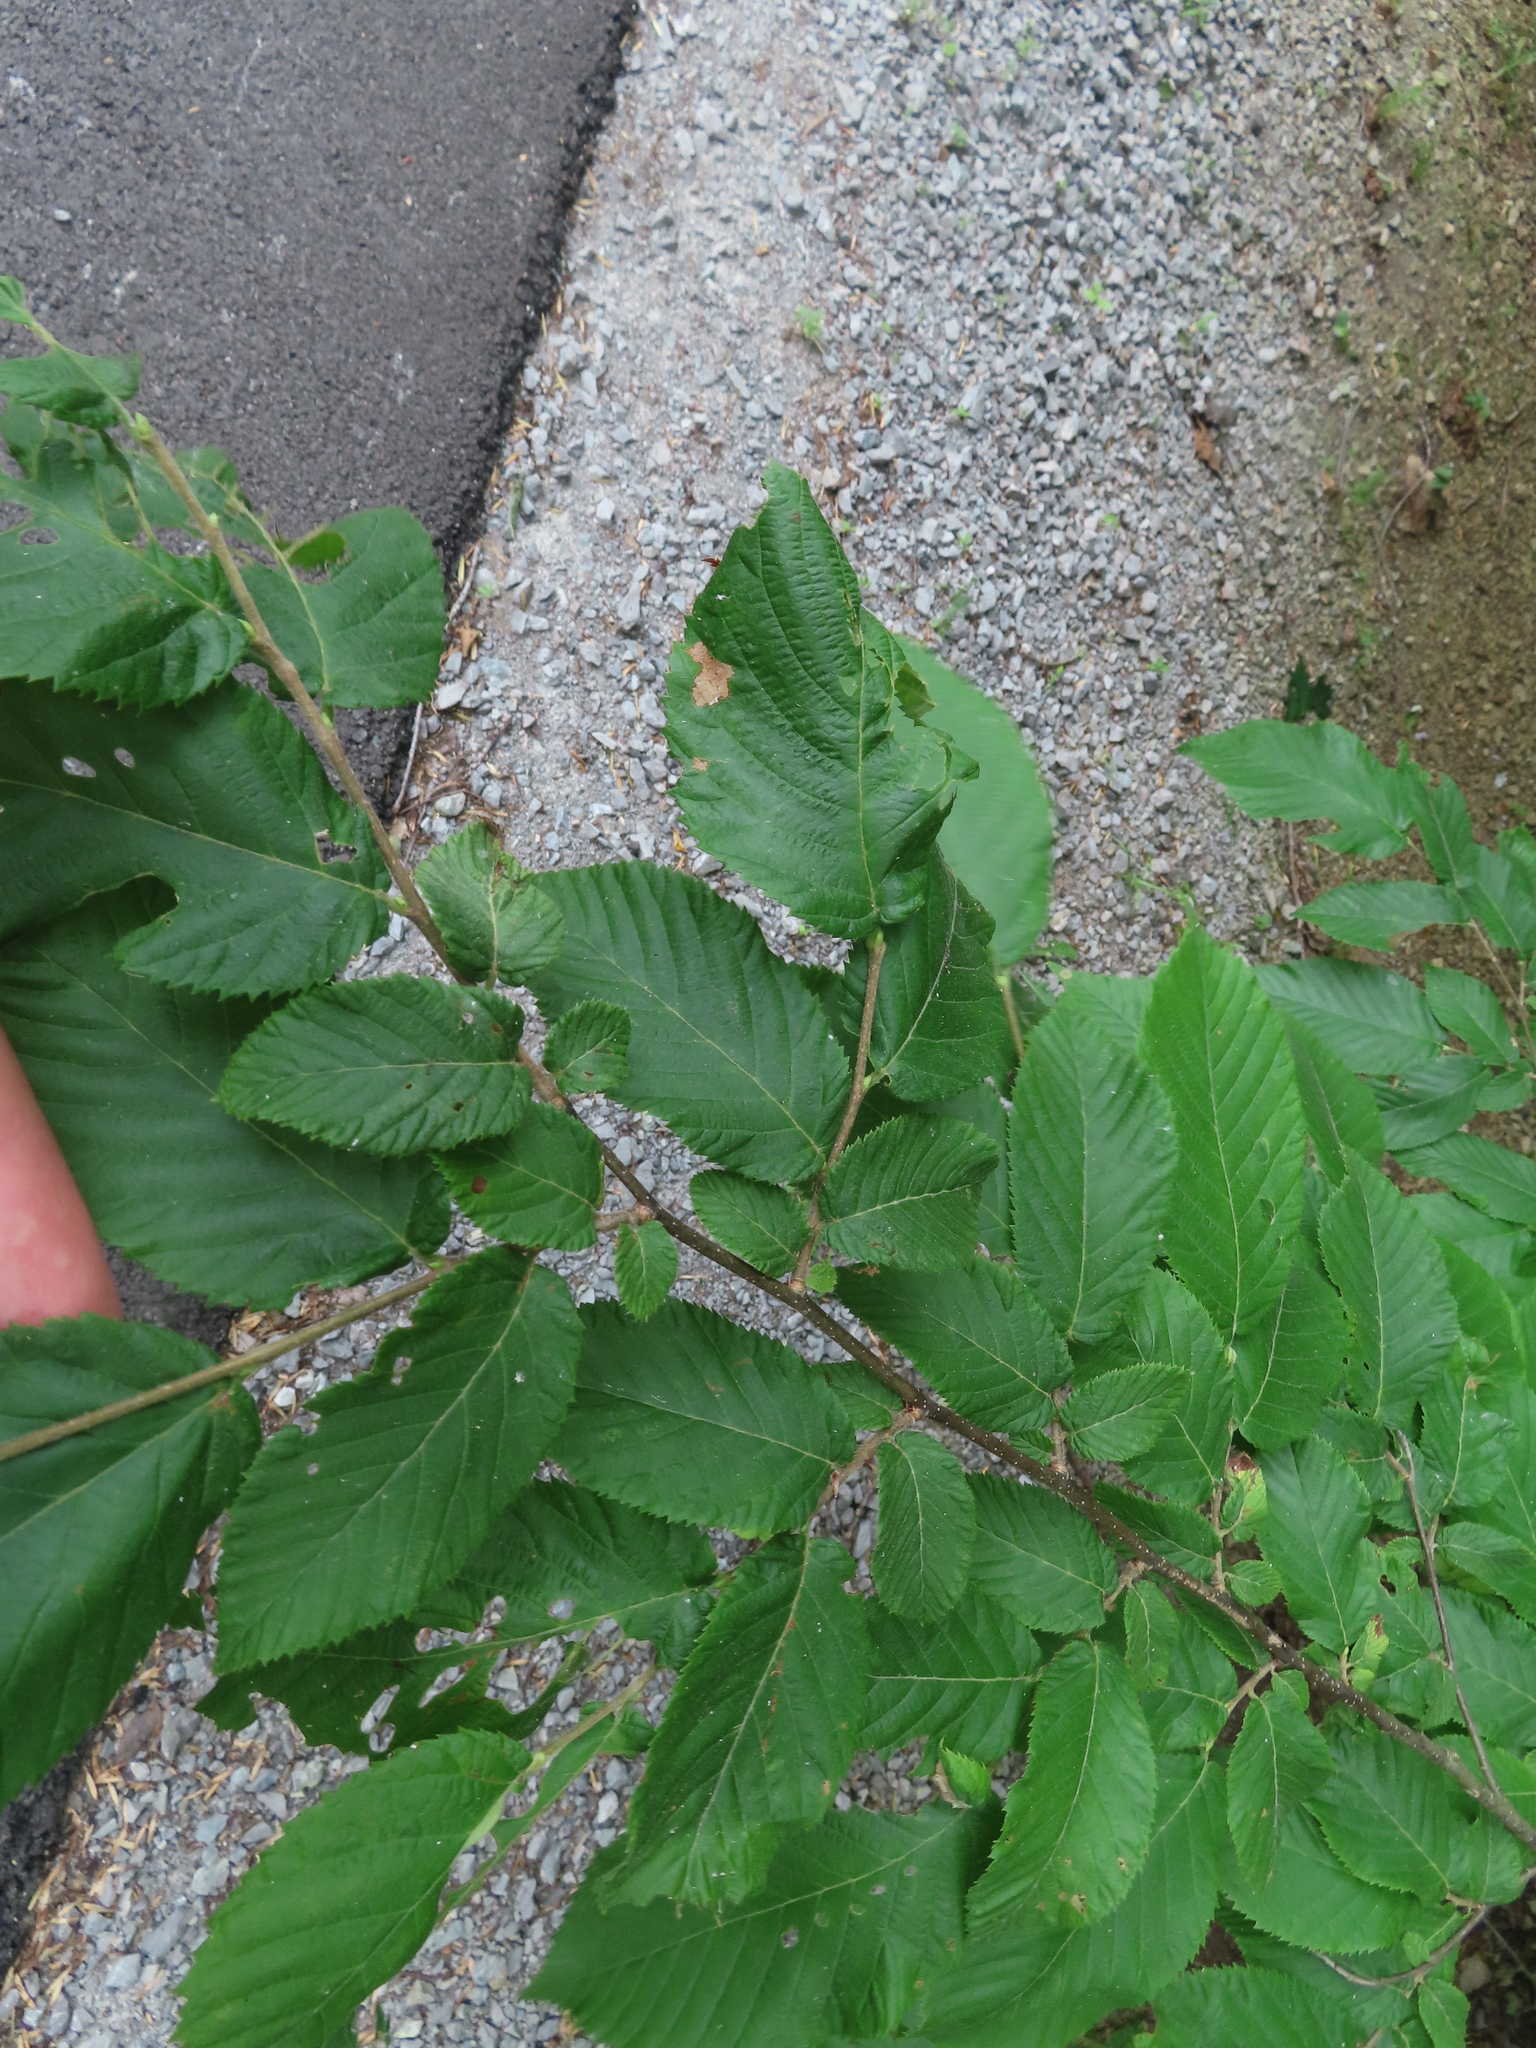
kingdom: Plantae
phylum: Tracheophyta
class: Magnoliopsida
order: Fagales
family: Betulaceae
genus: Ostrya
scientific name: Ostrya virginiana
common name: Ironwood
